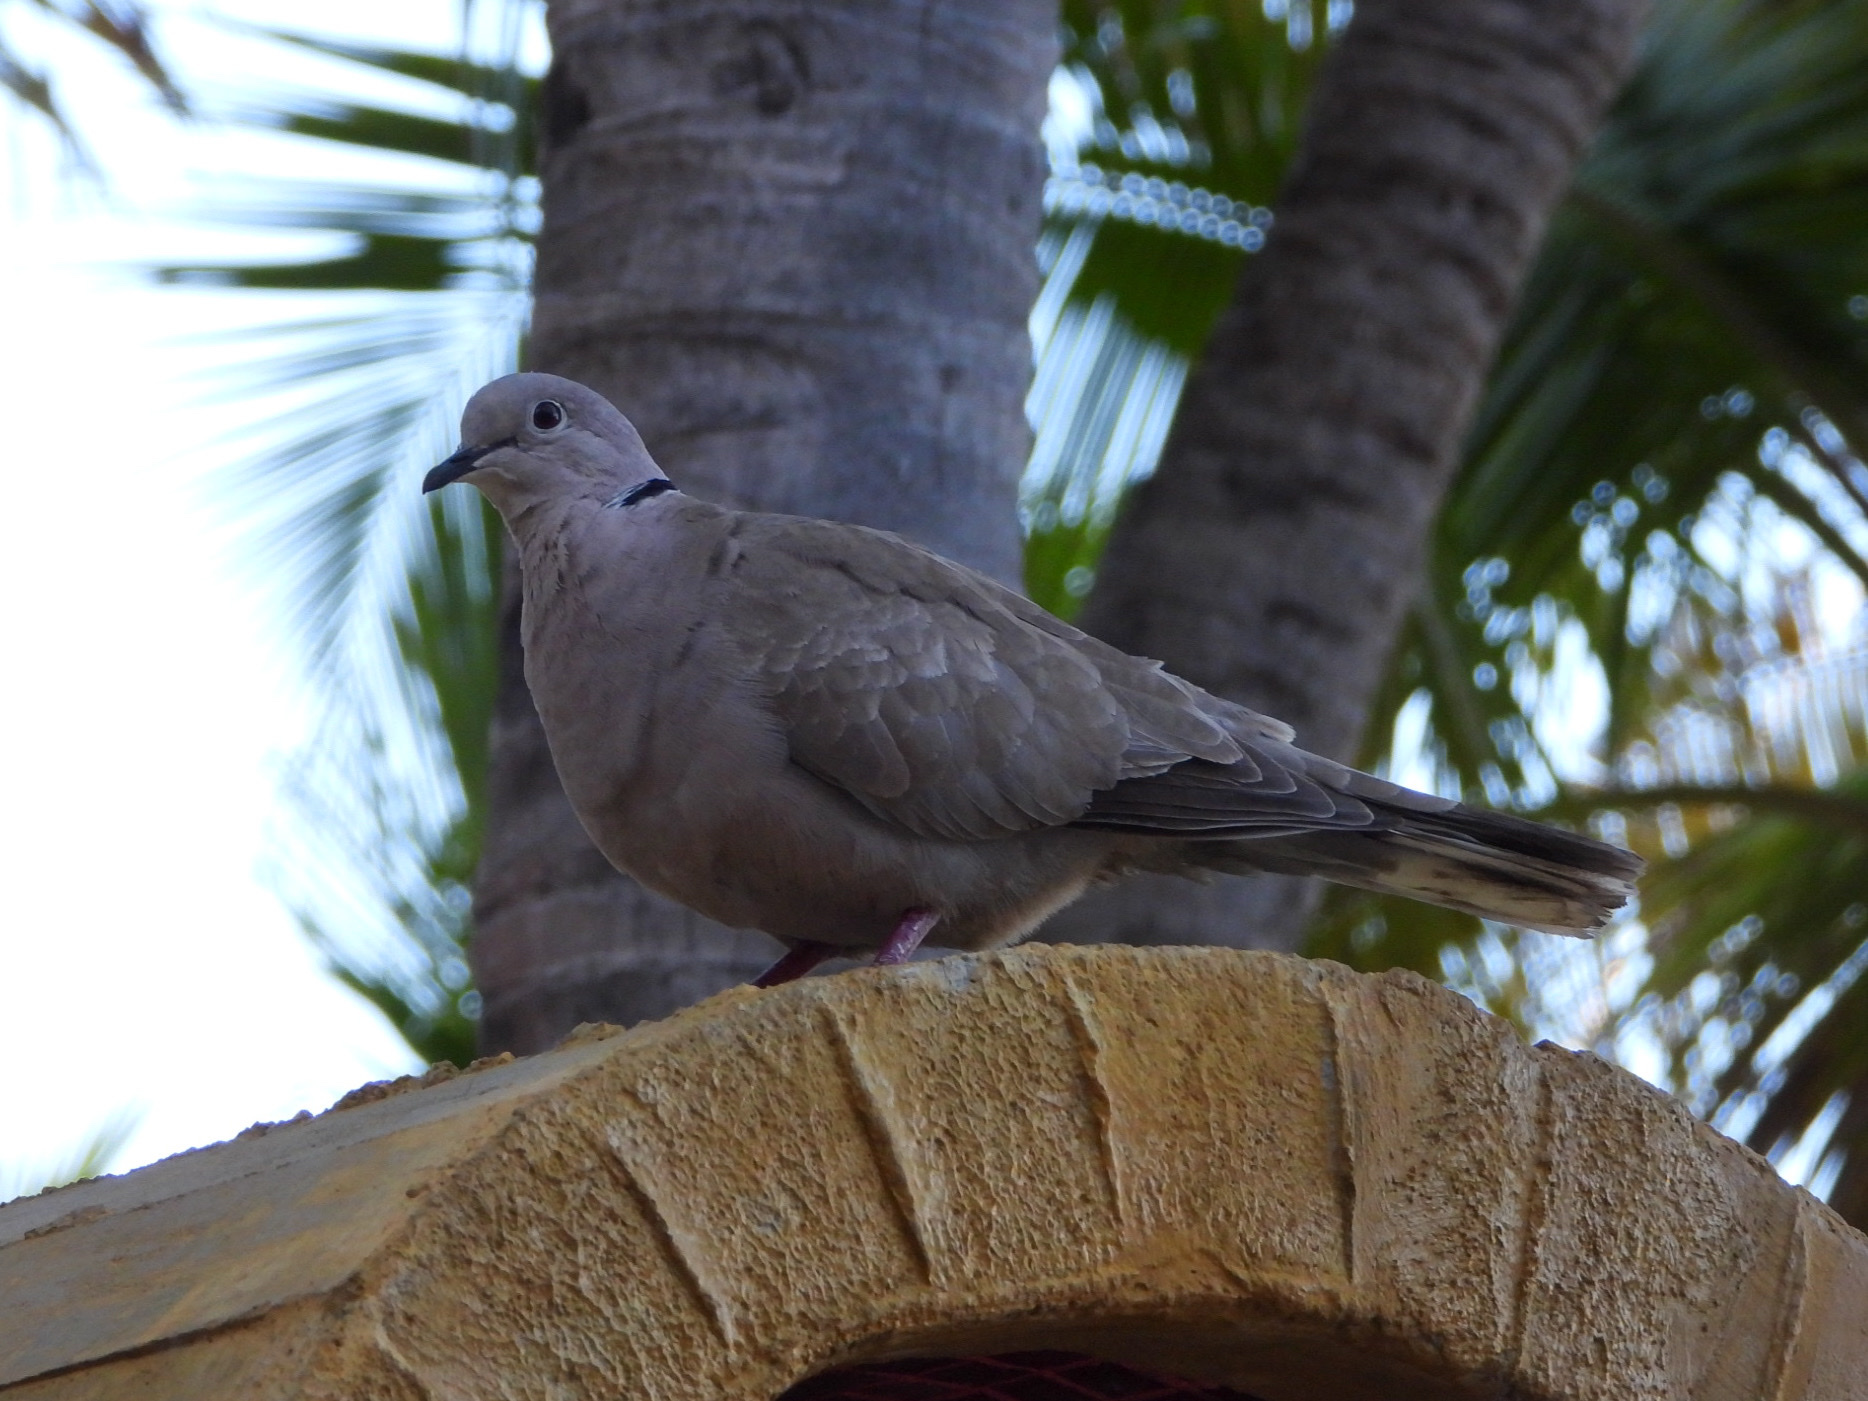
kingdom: Animalia
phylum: Chordata
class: Aves
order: Columbiformes
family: Columbidae
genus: Streptopelia
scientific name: Streptopelia decaocto
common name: Eurasian collared dove
